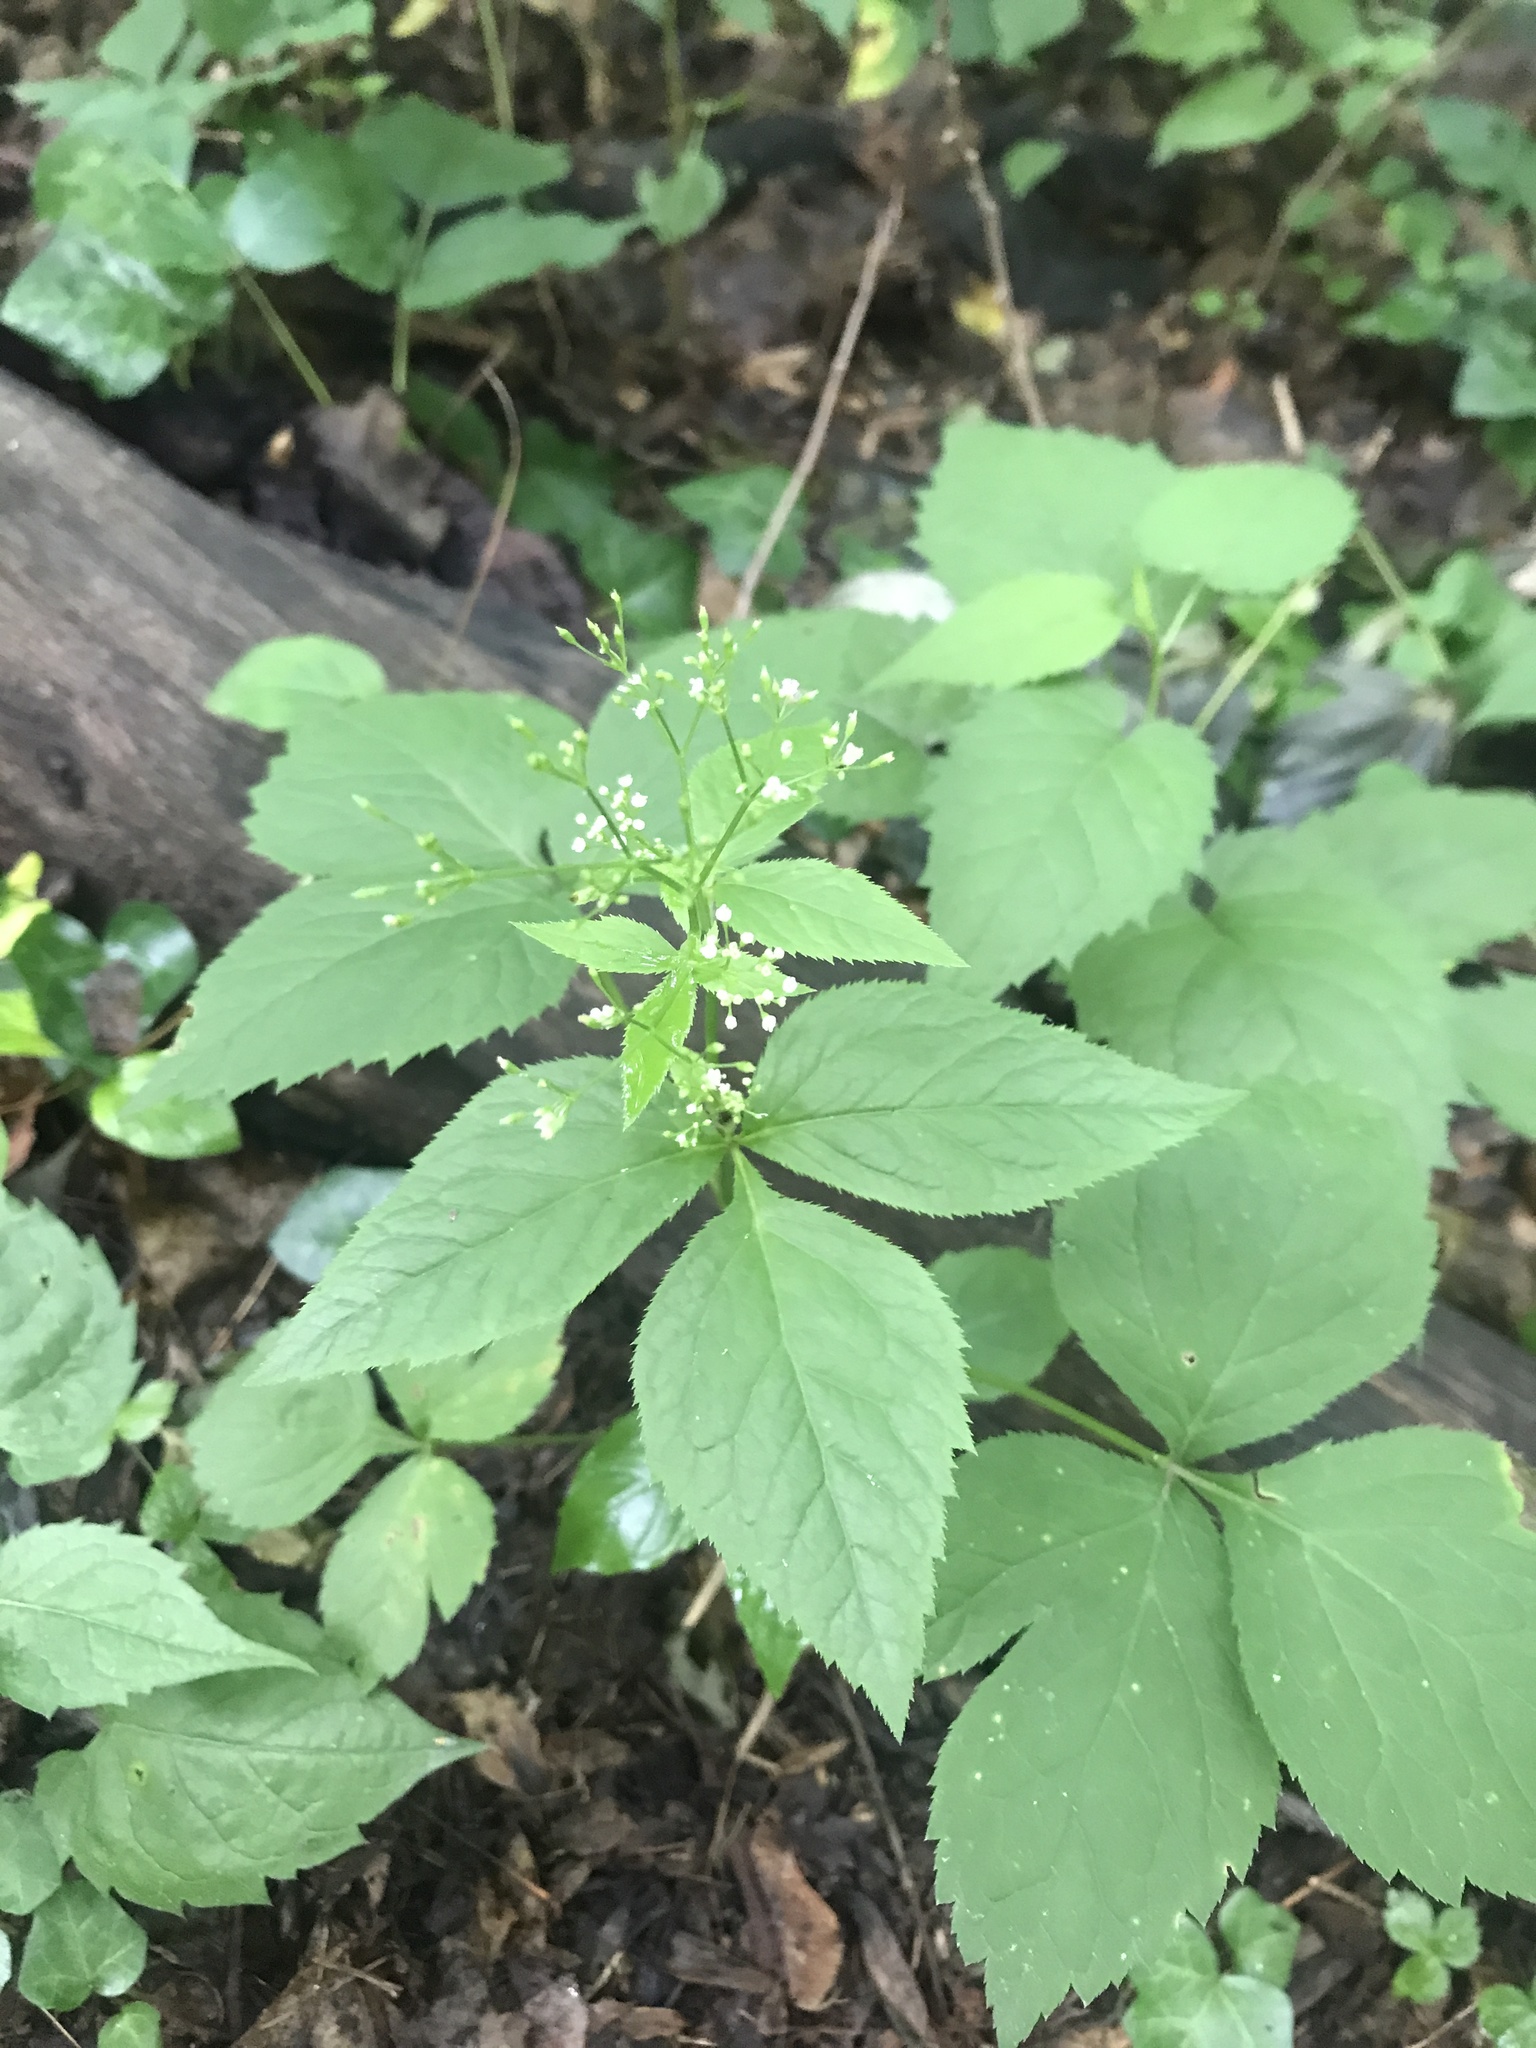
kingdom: Plantae
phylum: Tracheophyta
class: Magnoliopsida
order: Apiales
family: Apiaceae
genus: Cryptotaenia
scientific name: Cryptotaenia canadensis
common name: Honewort
